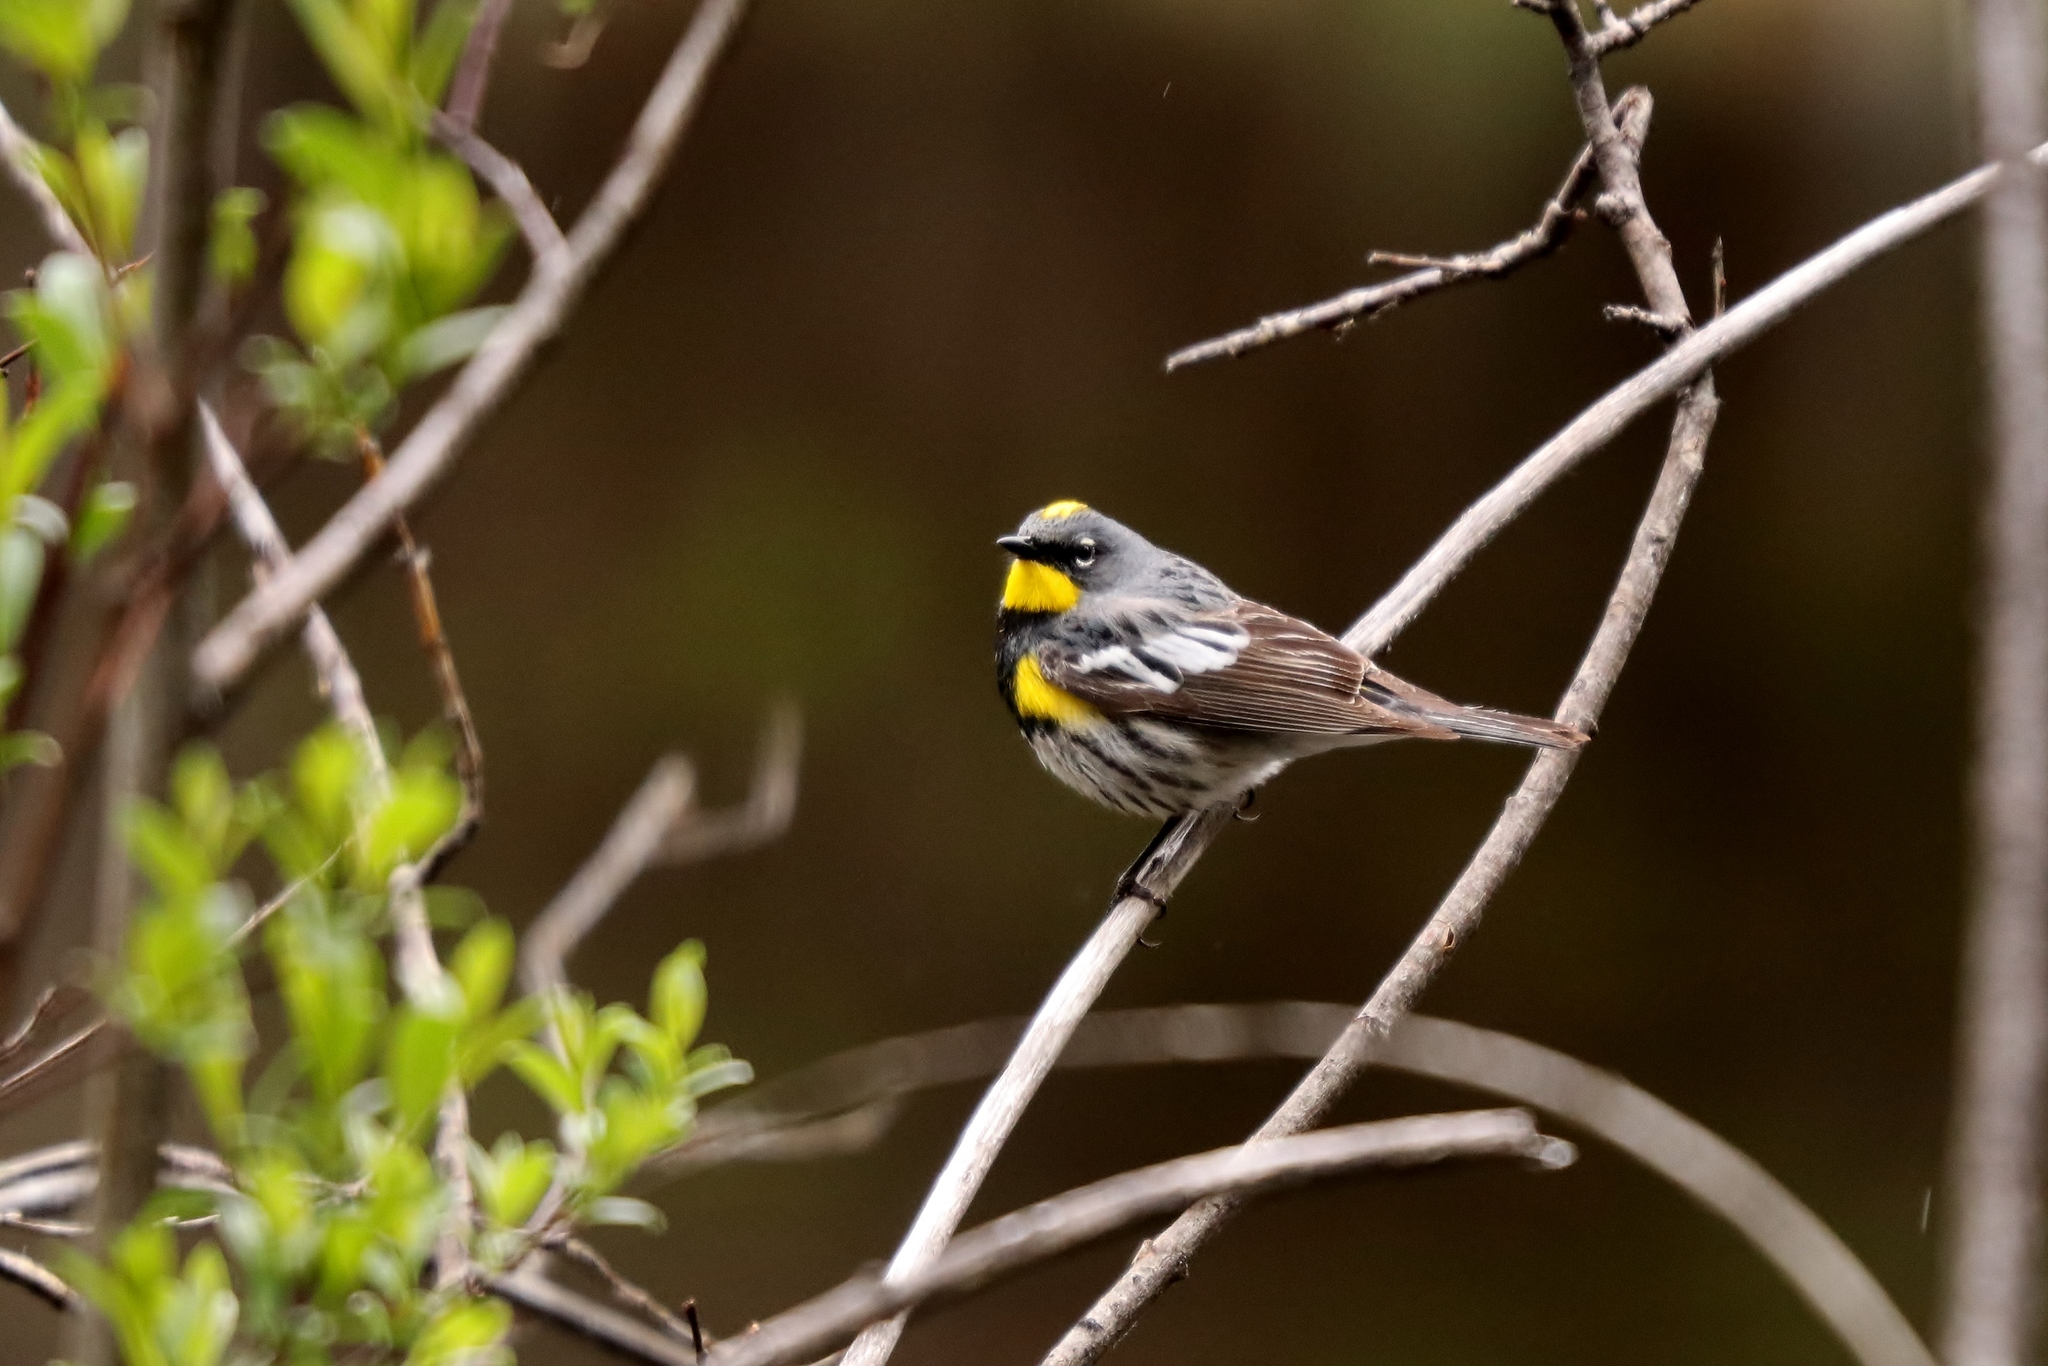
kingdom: Animalia
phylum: Chordata
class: Aves
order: Passeriformes
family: Parulidae
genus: Setophaga
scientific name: Setophaga auduboni
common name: Audubon's warbler
